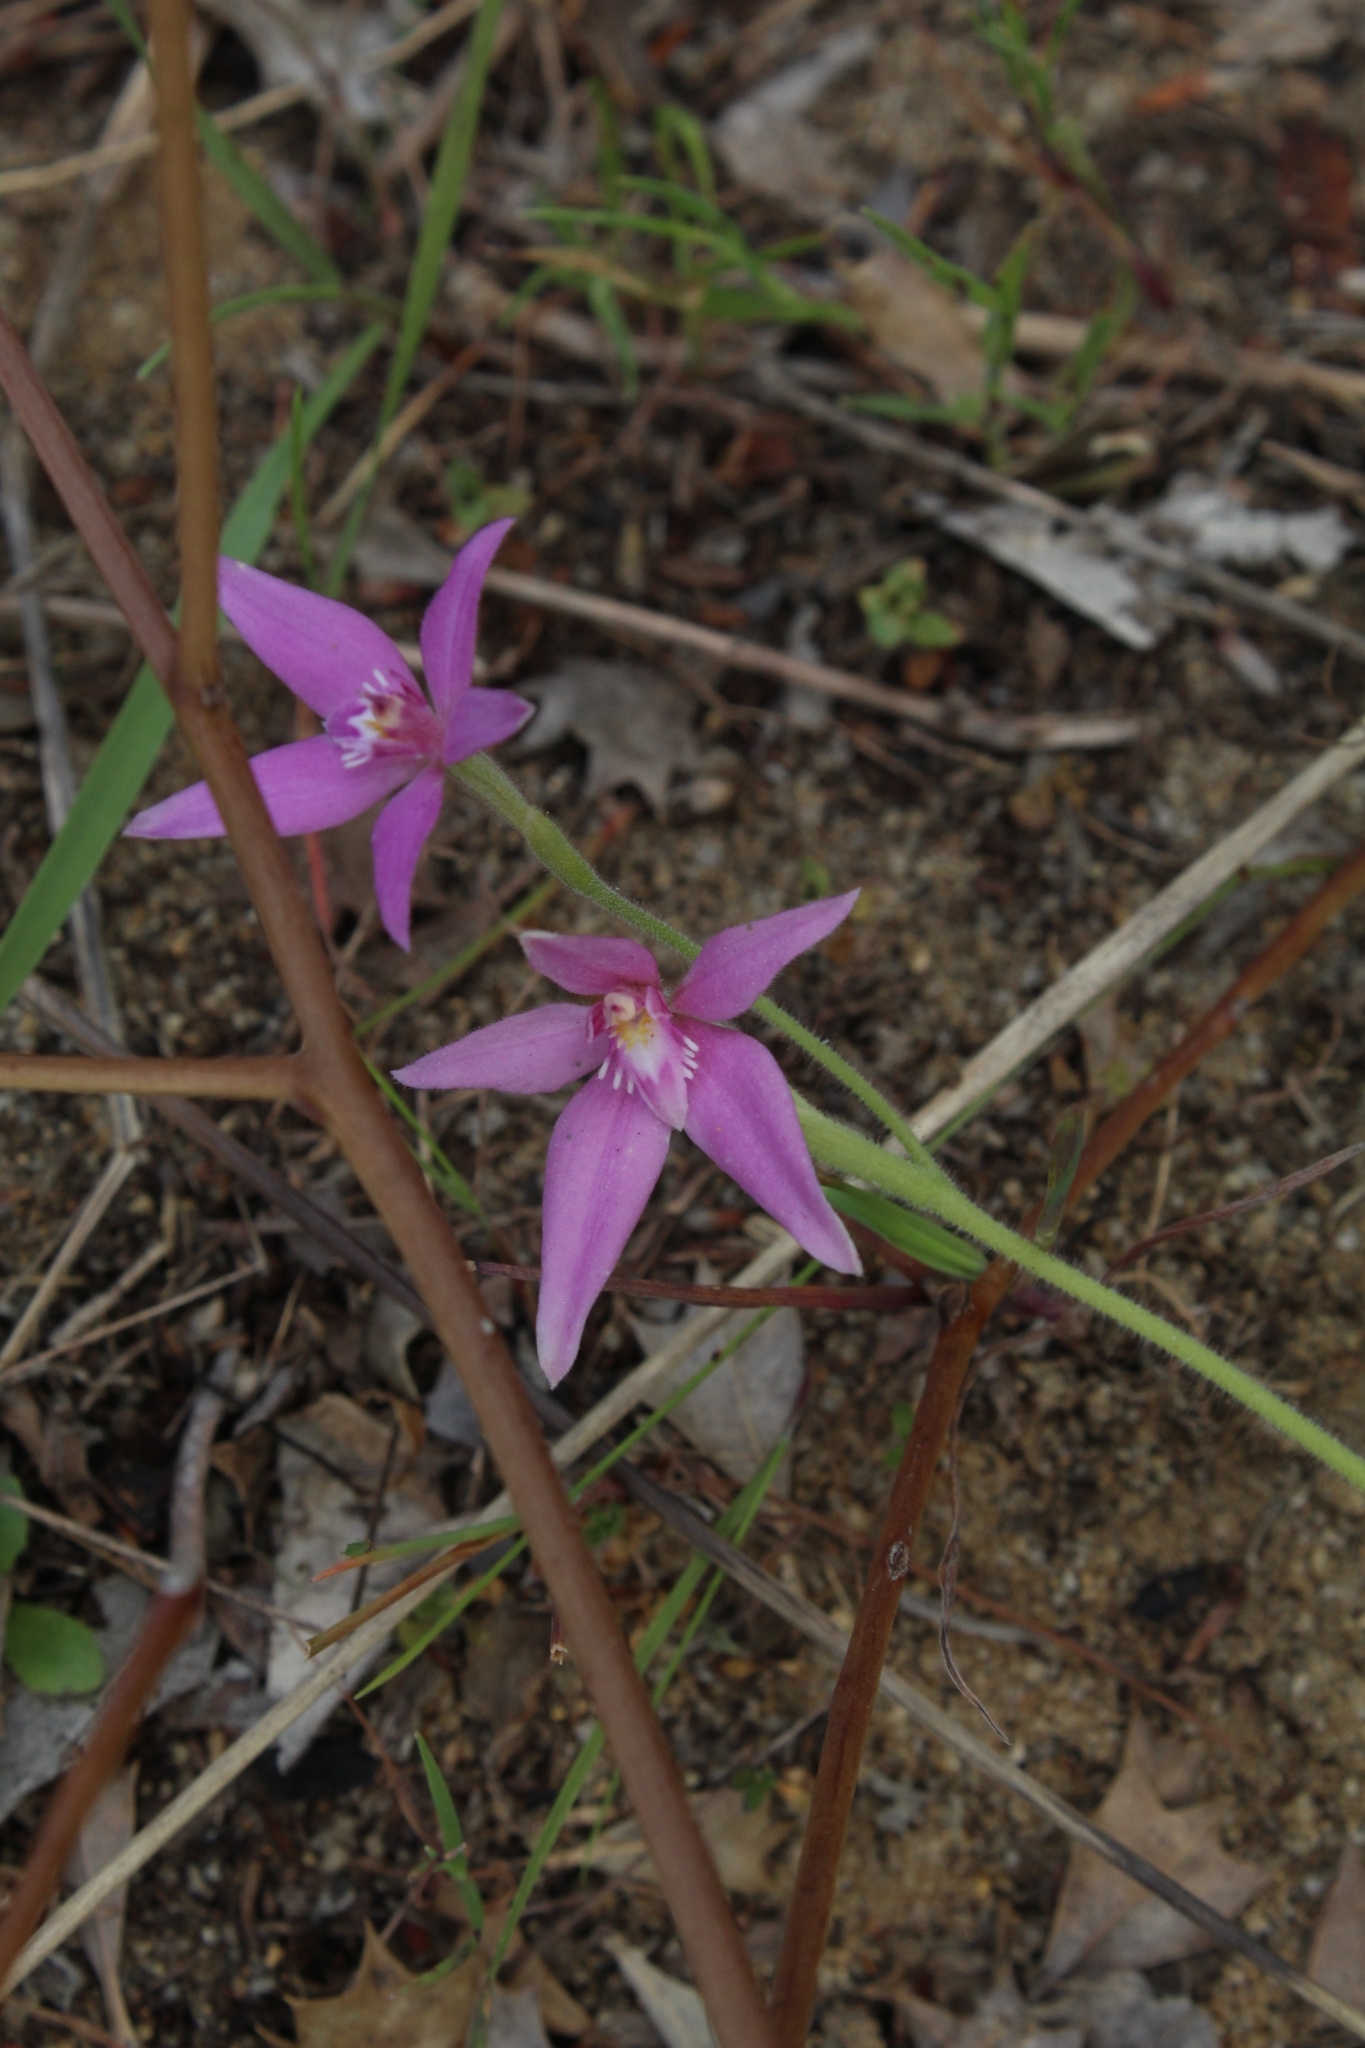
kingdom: Plantae
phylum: Tracheophyta
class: Liliopsida
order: Asparagales
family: Orchidaceae
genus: Caladenia
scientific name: Caladenia latifolia
